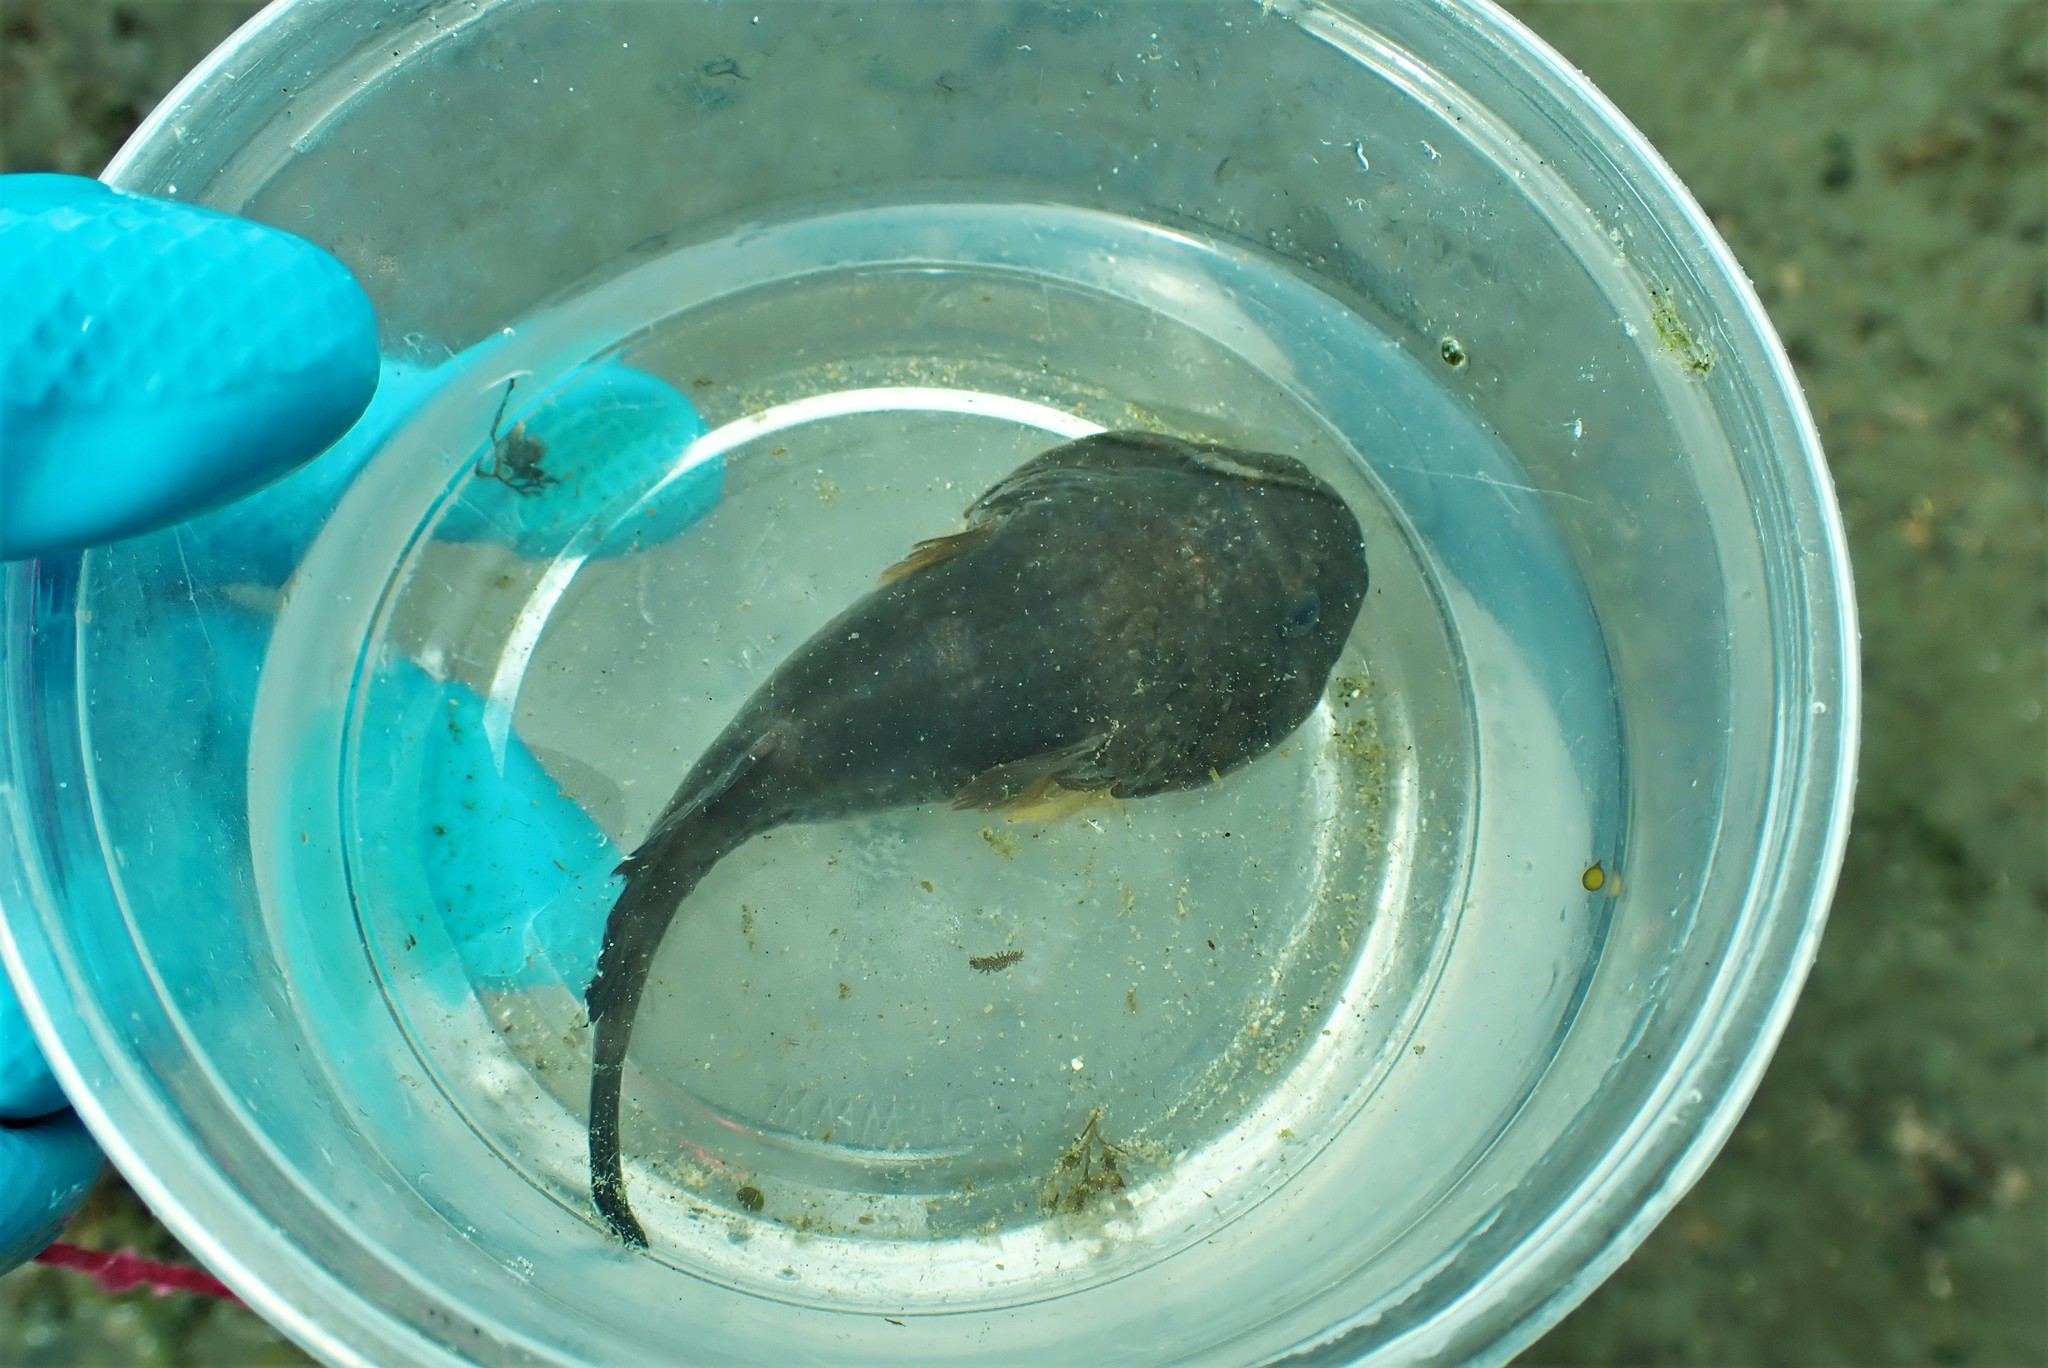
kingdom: Animalia
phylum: Chordata
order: Gobiesociformes
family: Gobiesocidae
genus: Gobiesox
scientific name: Gobiesox maeandricus
